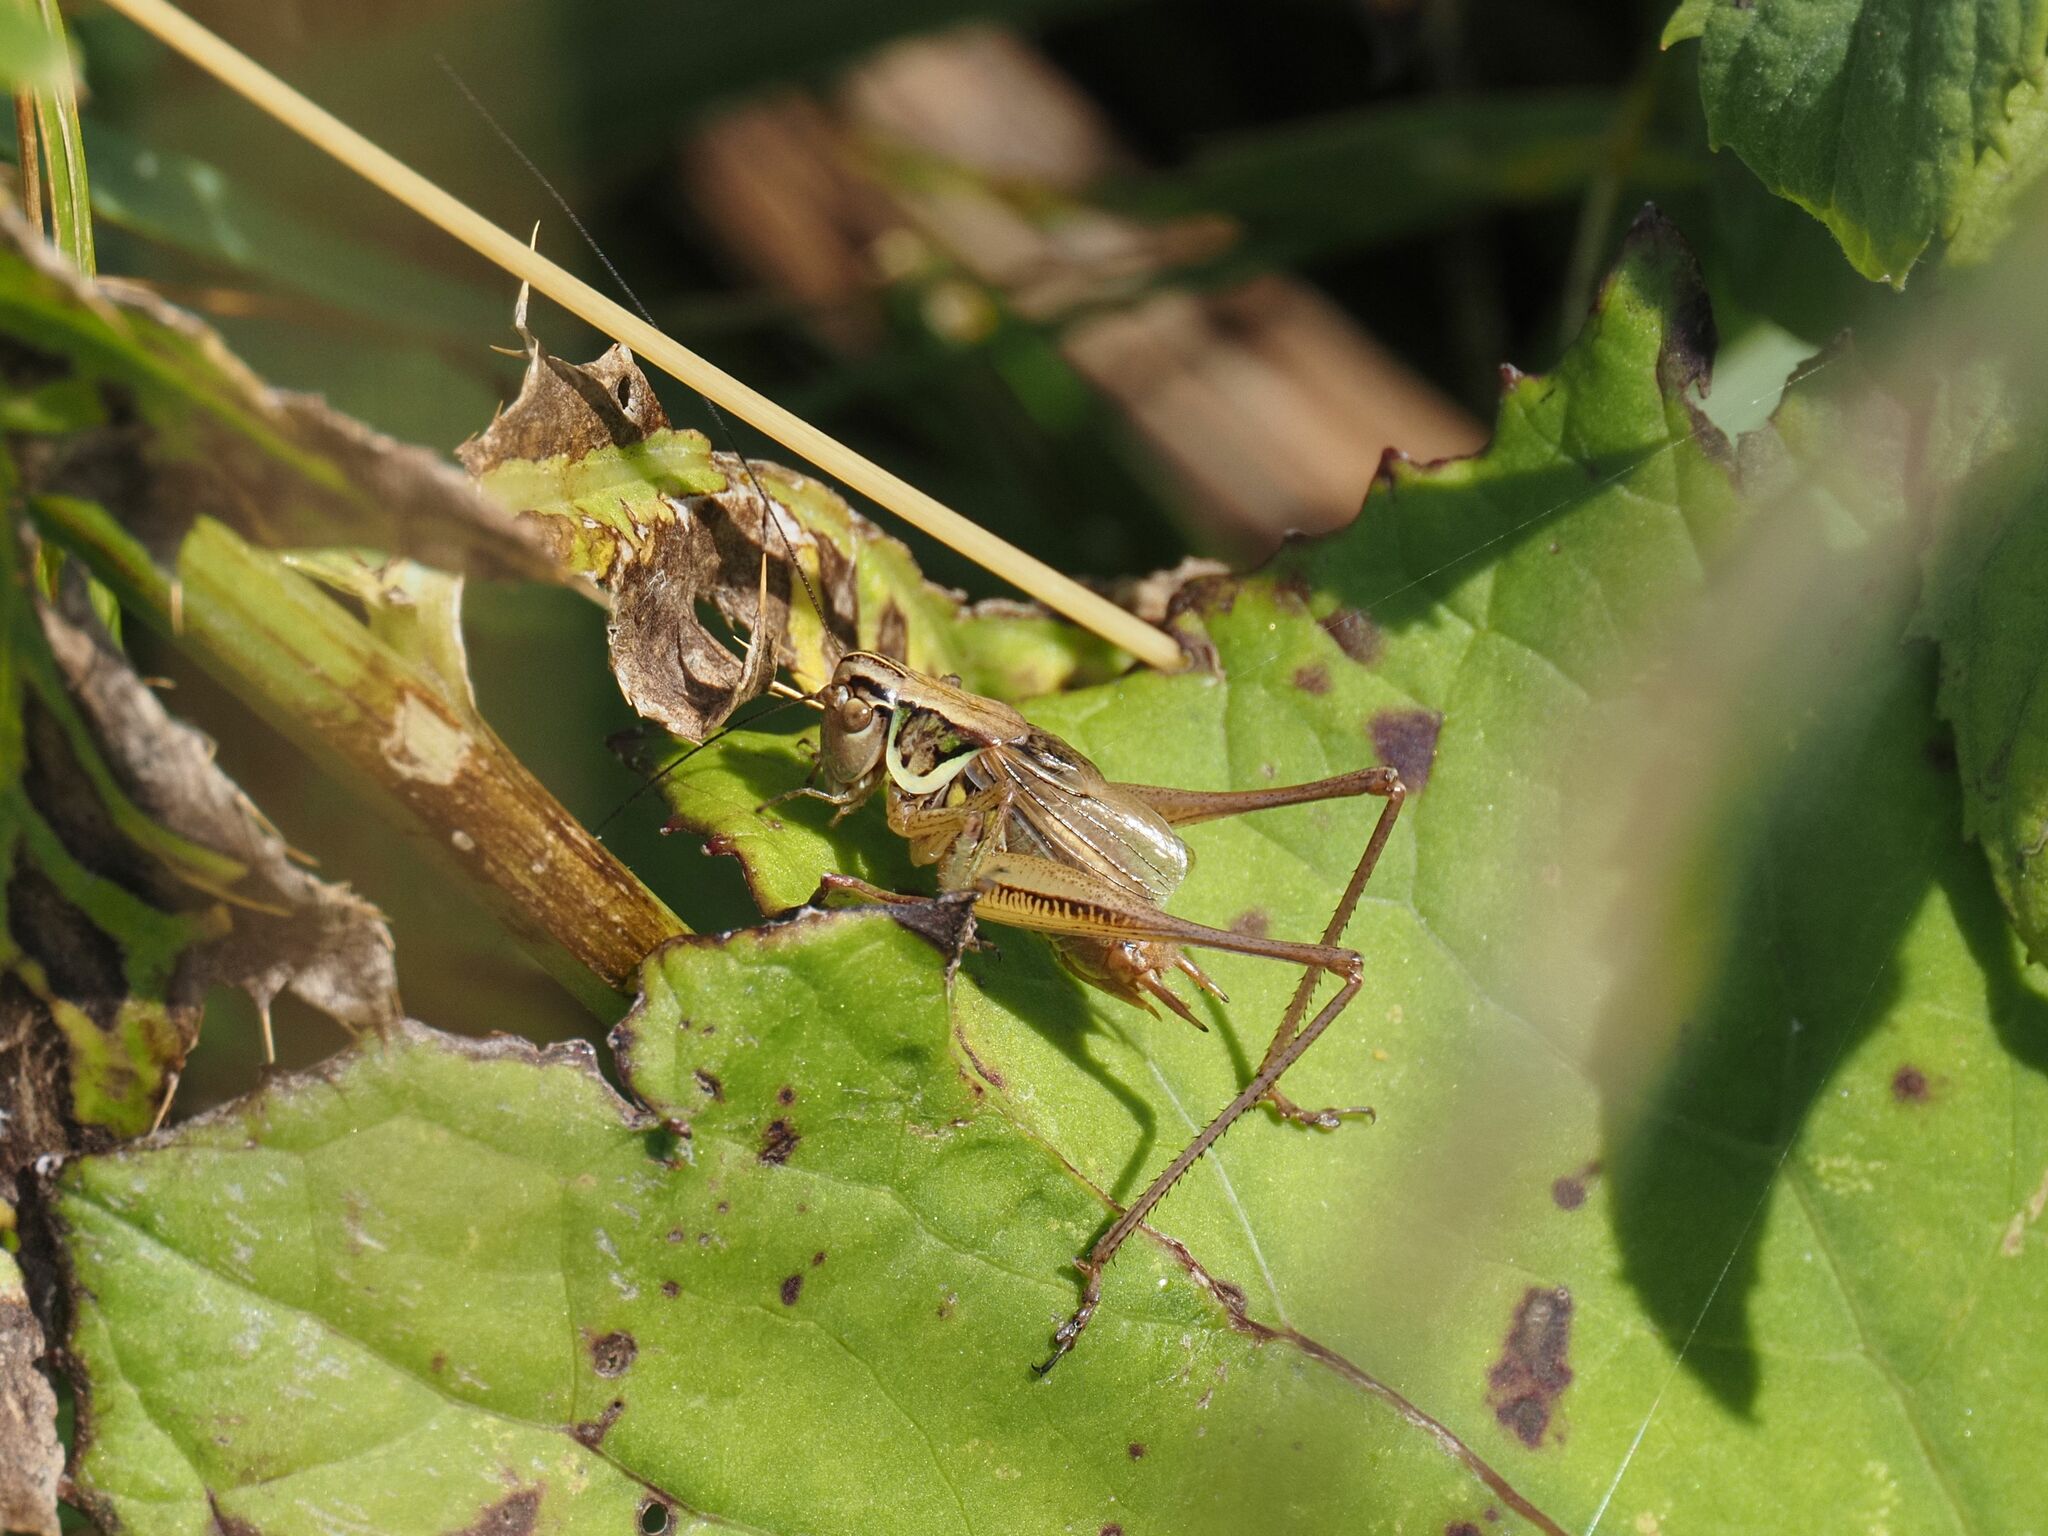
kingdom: Animalia
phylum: Arthropoda
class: Insecta
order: Orthoptera
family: Tettigoniidae
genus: Roeseliana
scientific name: Roeseliana roeselii
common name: Roesel's bush cricket
